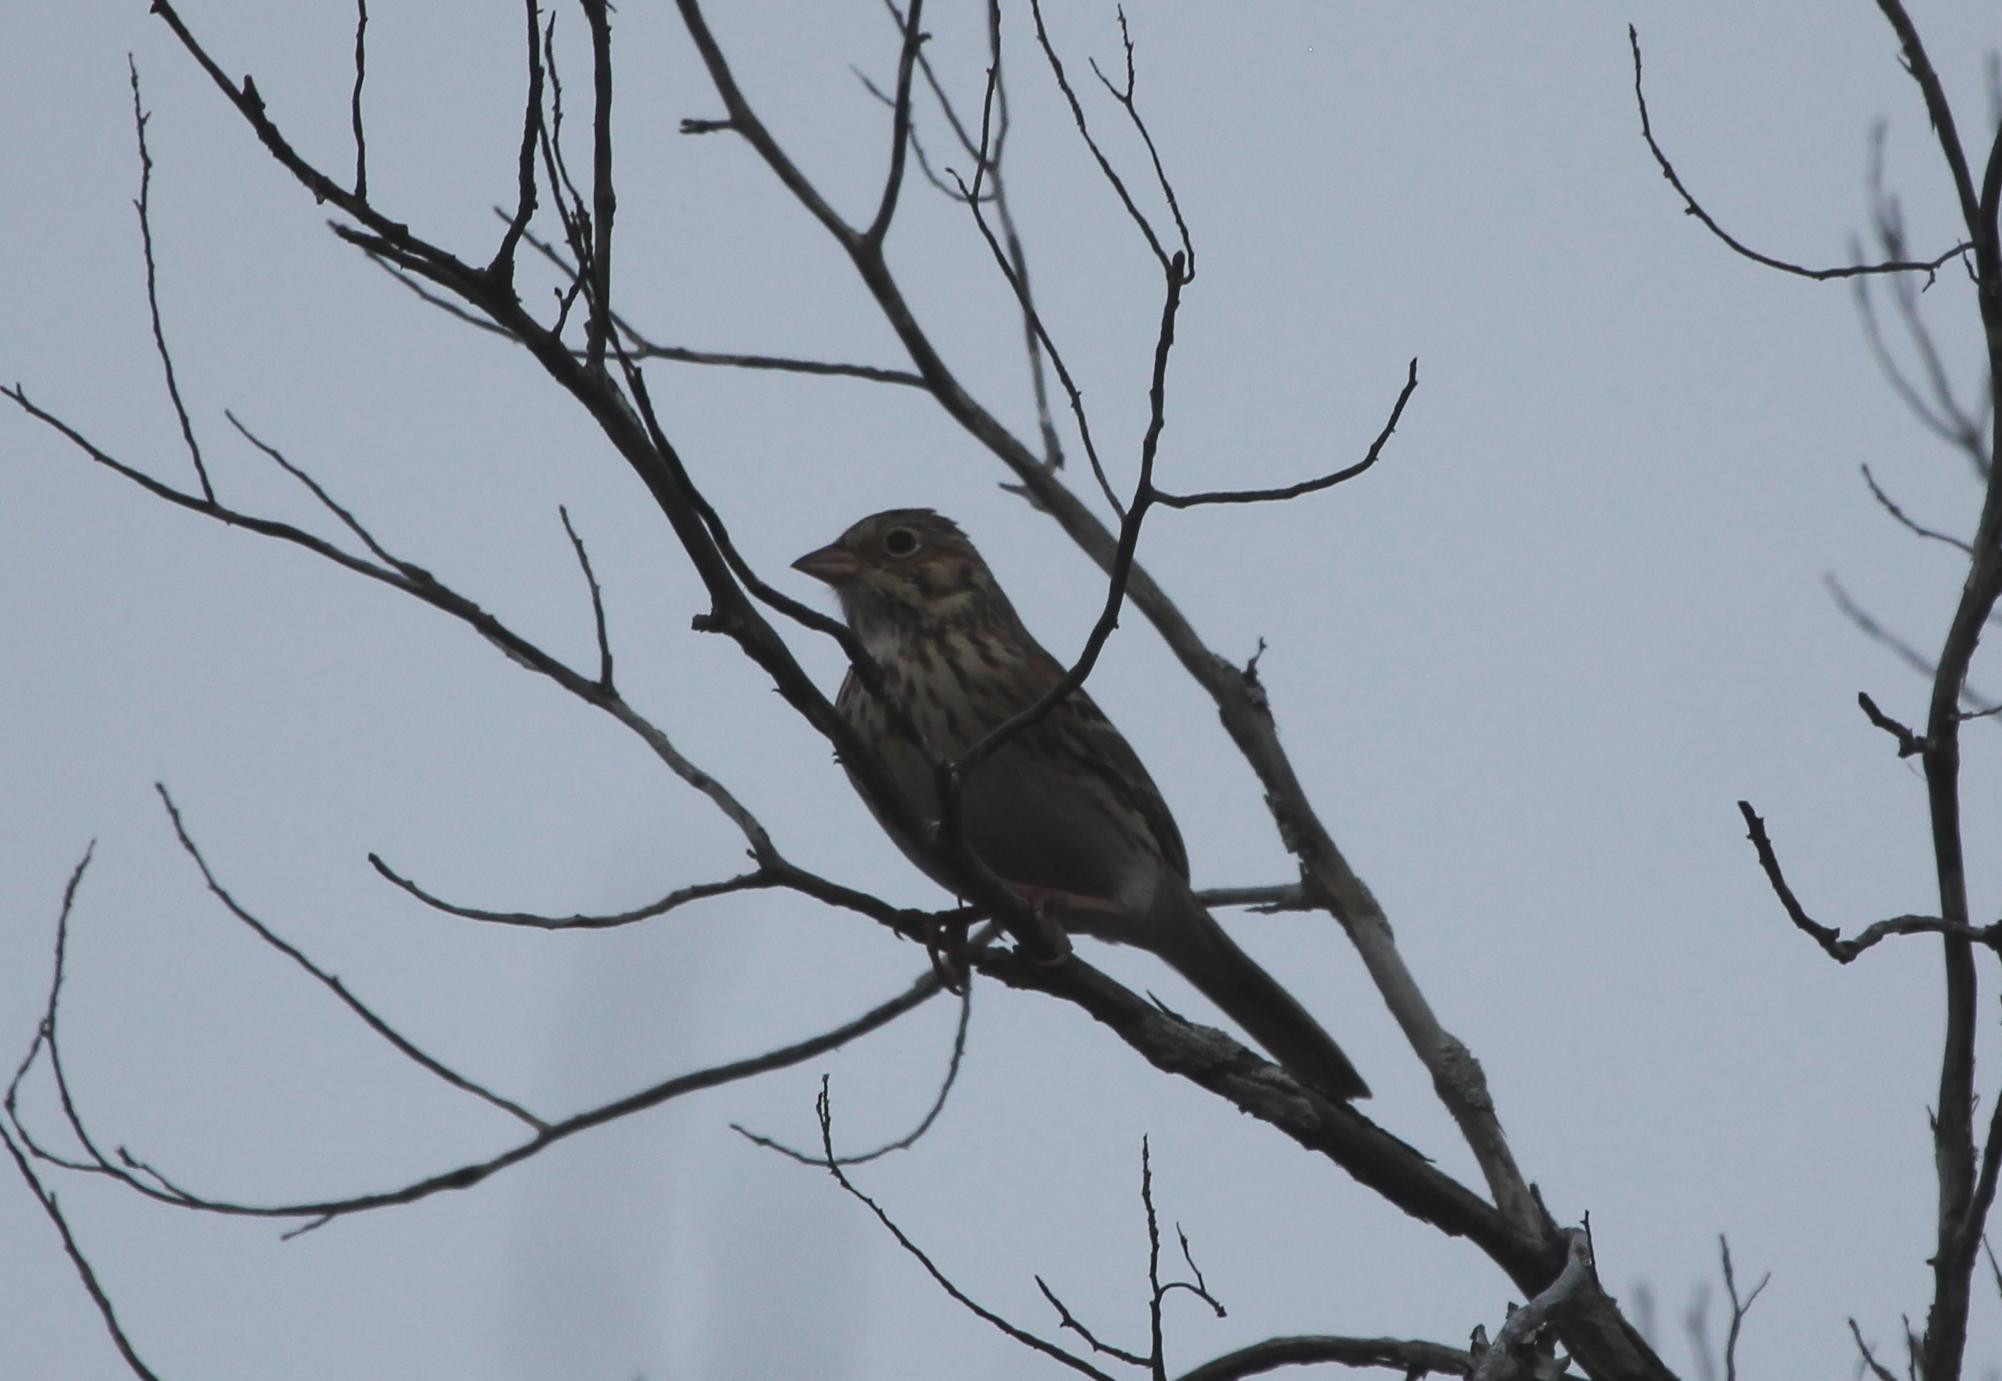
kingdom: Animalia
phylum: Chordata
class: Aves
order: Passeriformes
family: Passerellidae
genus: Pooecetes
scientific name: Pooecetes gramineus
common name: Vesper sparrow
